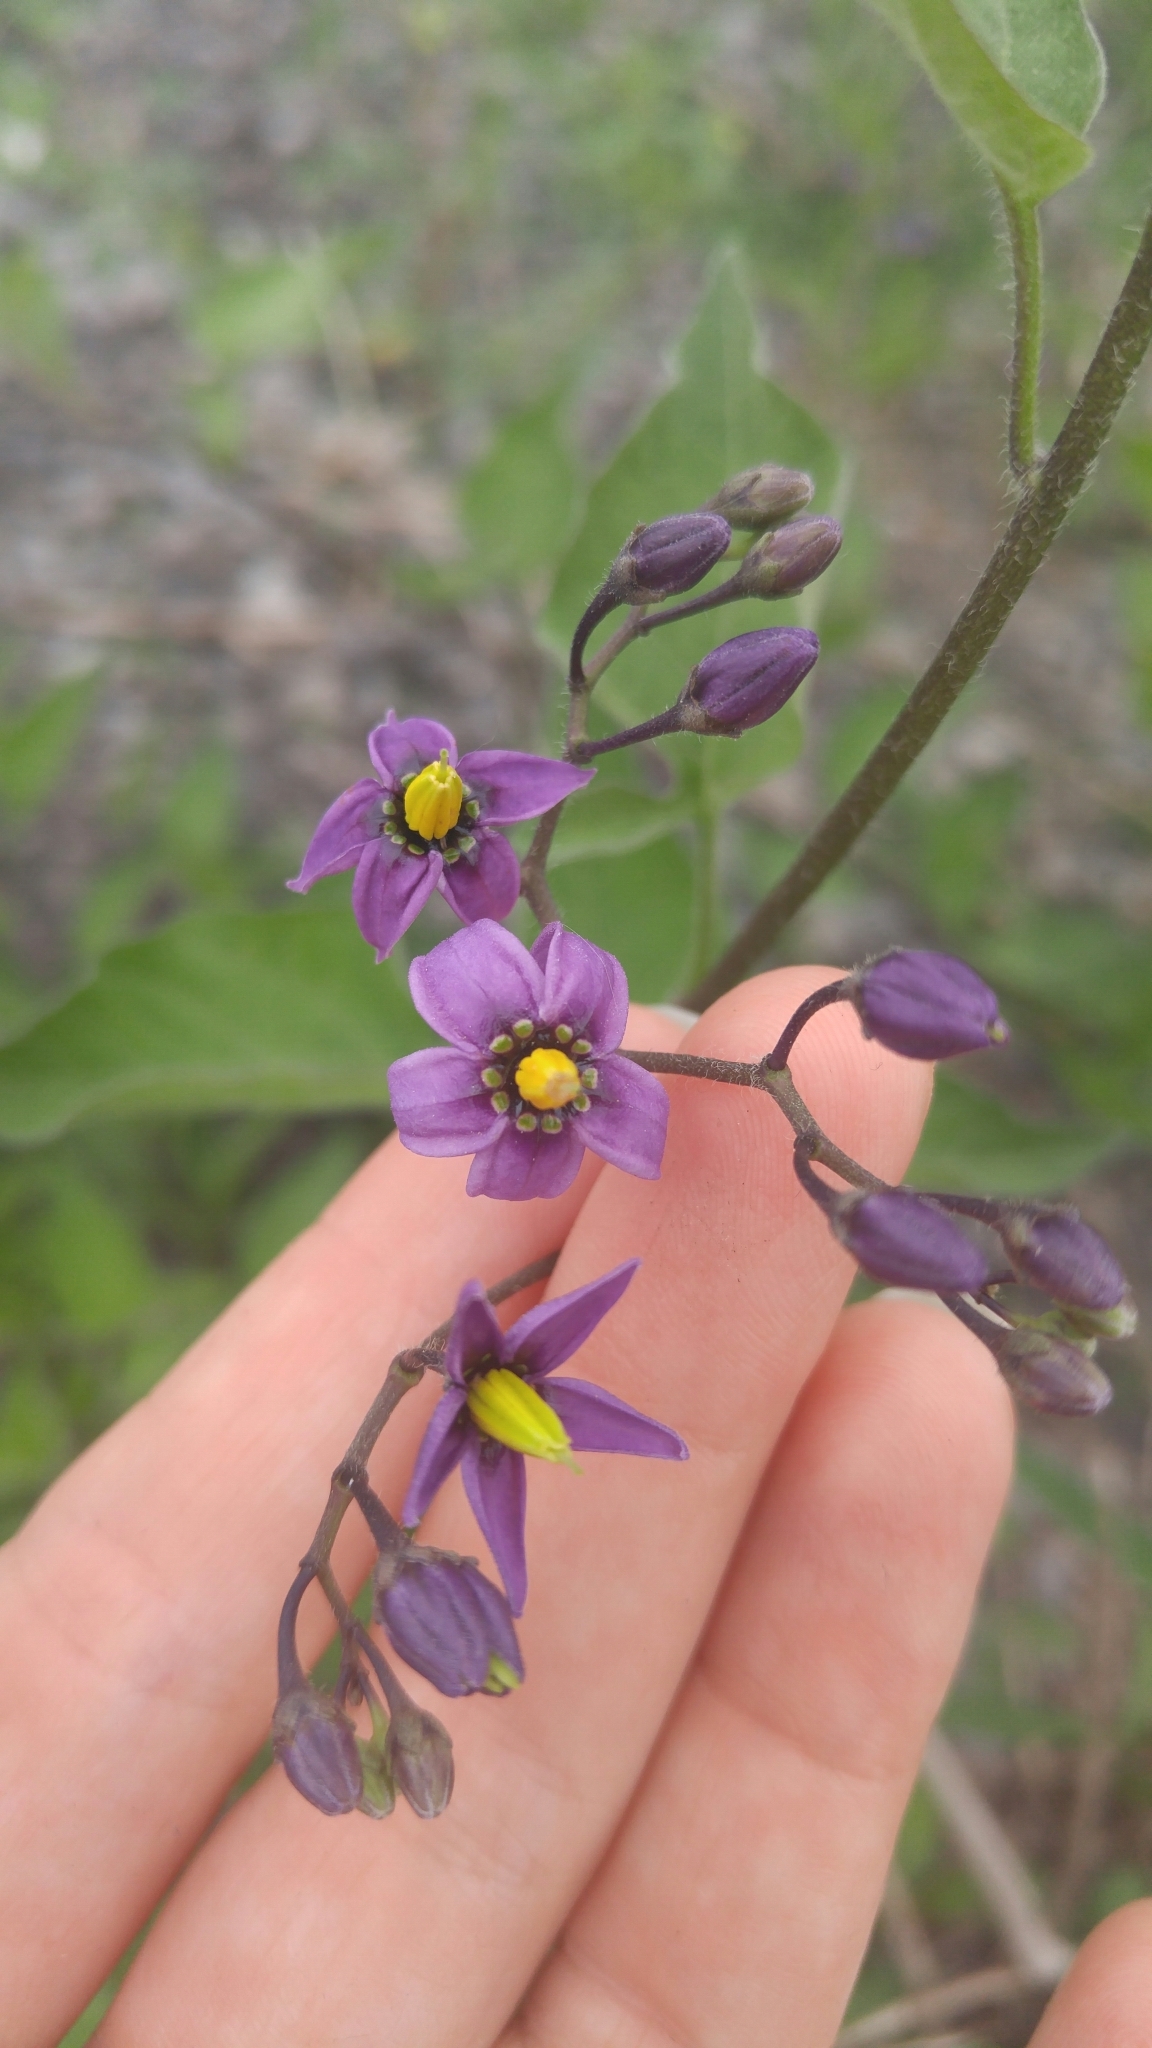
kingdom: Plantae
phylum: Tracheophyta
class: Magnoliopsida
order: Solanales
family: Solanaceae
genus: Solanum
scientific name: Solanum dulcamara
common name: Climbing nightshade
